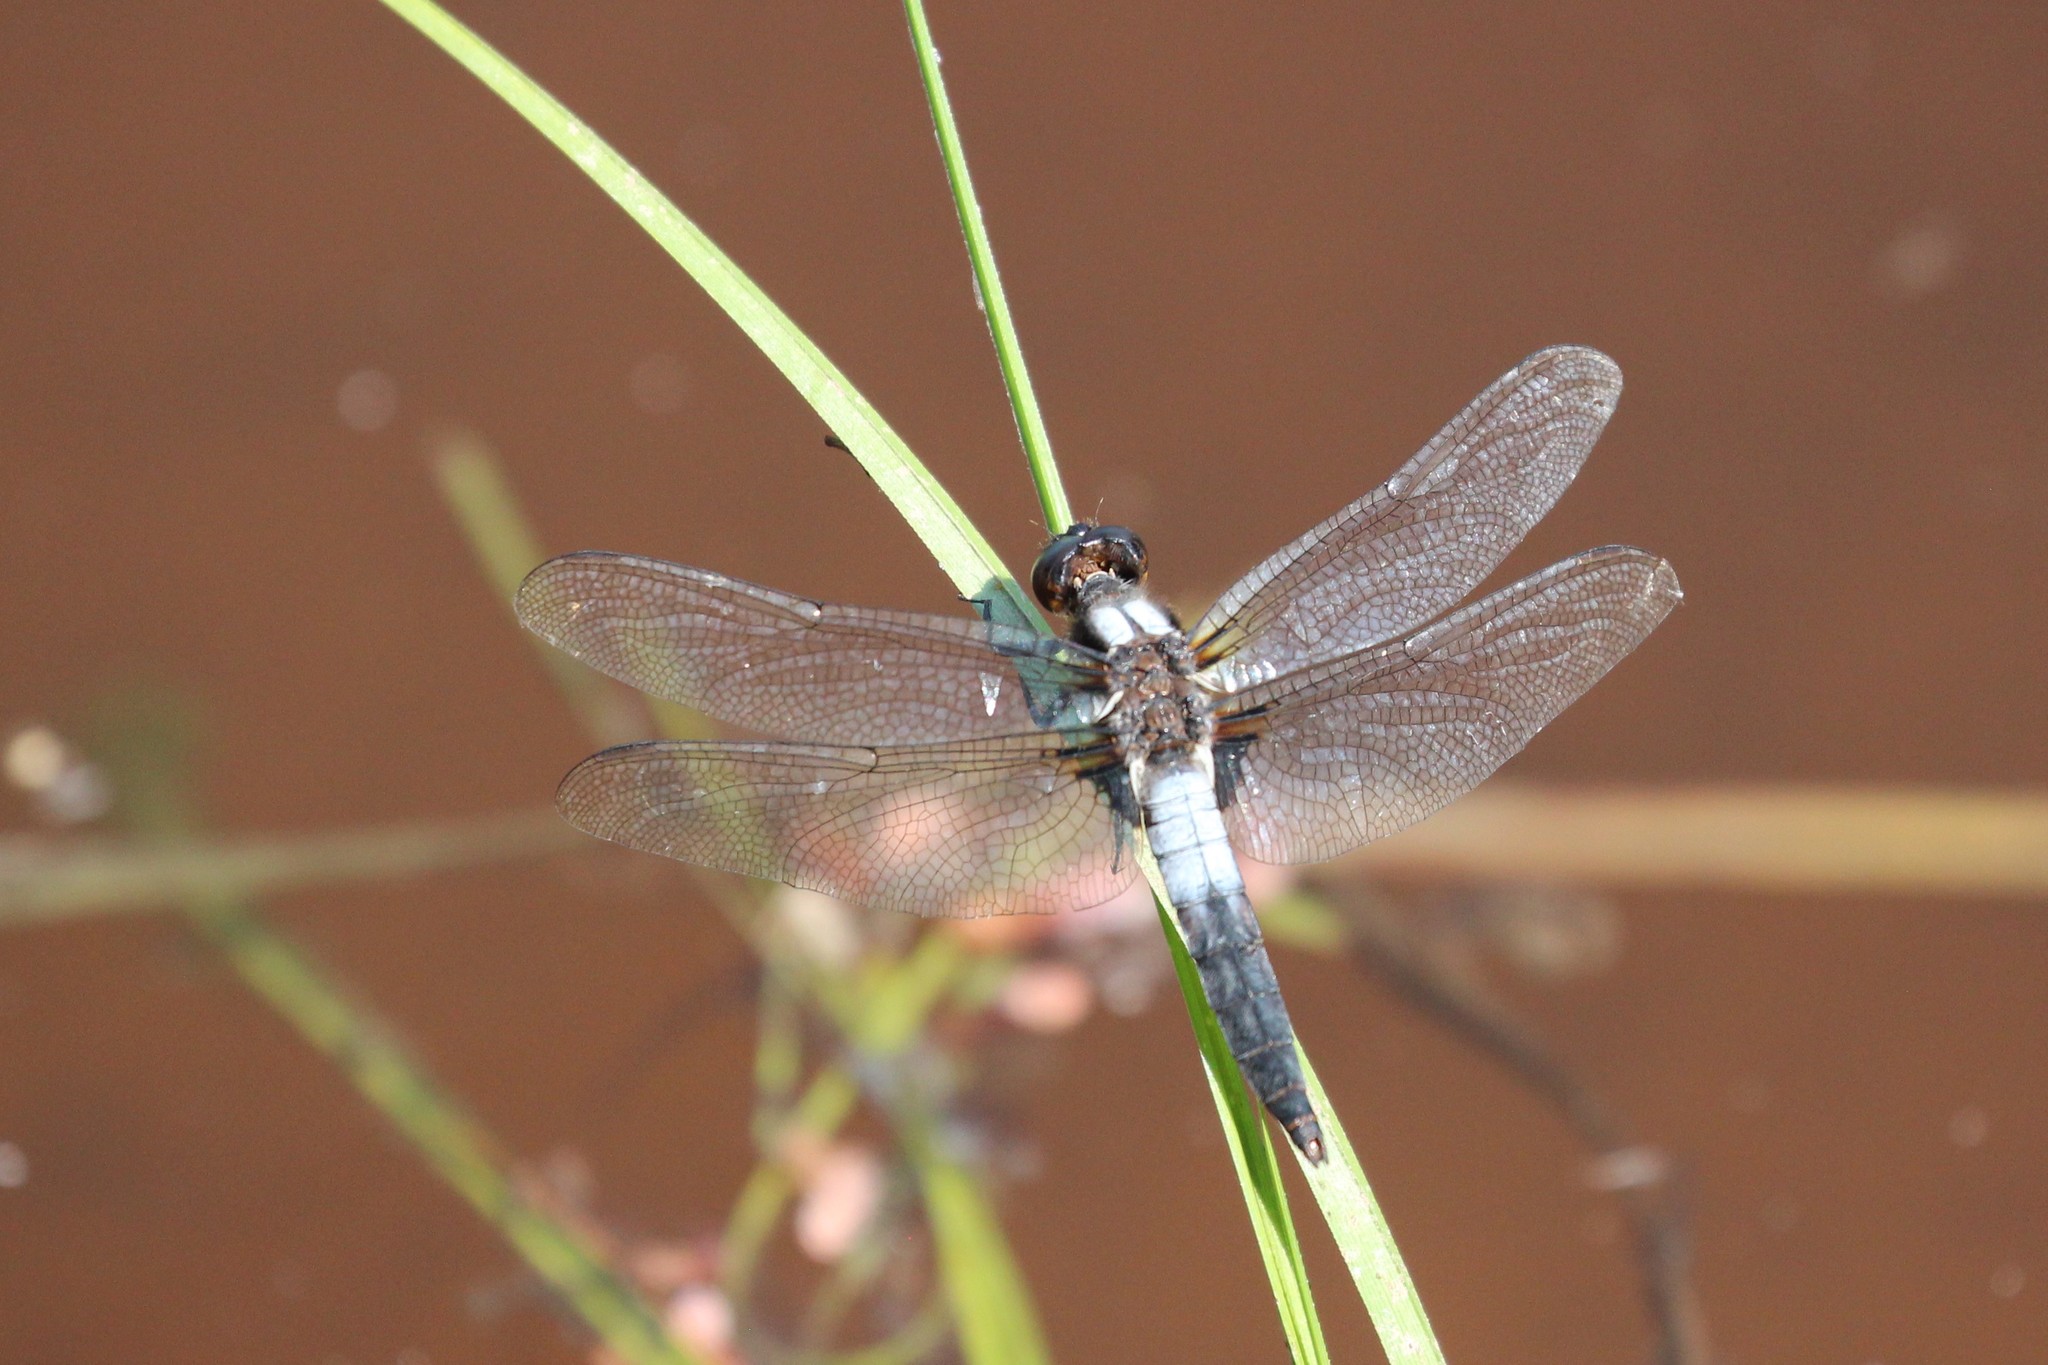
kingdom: Animalia
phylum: Arthropoda
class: Insecta
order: Odonata
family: Libellulidae
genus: Ladona
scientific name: Ladona julia
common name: Chalk-fronted corporal
